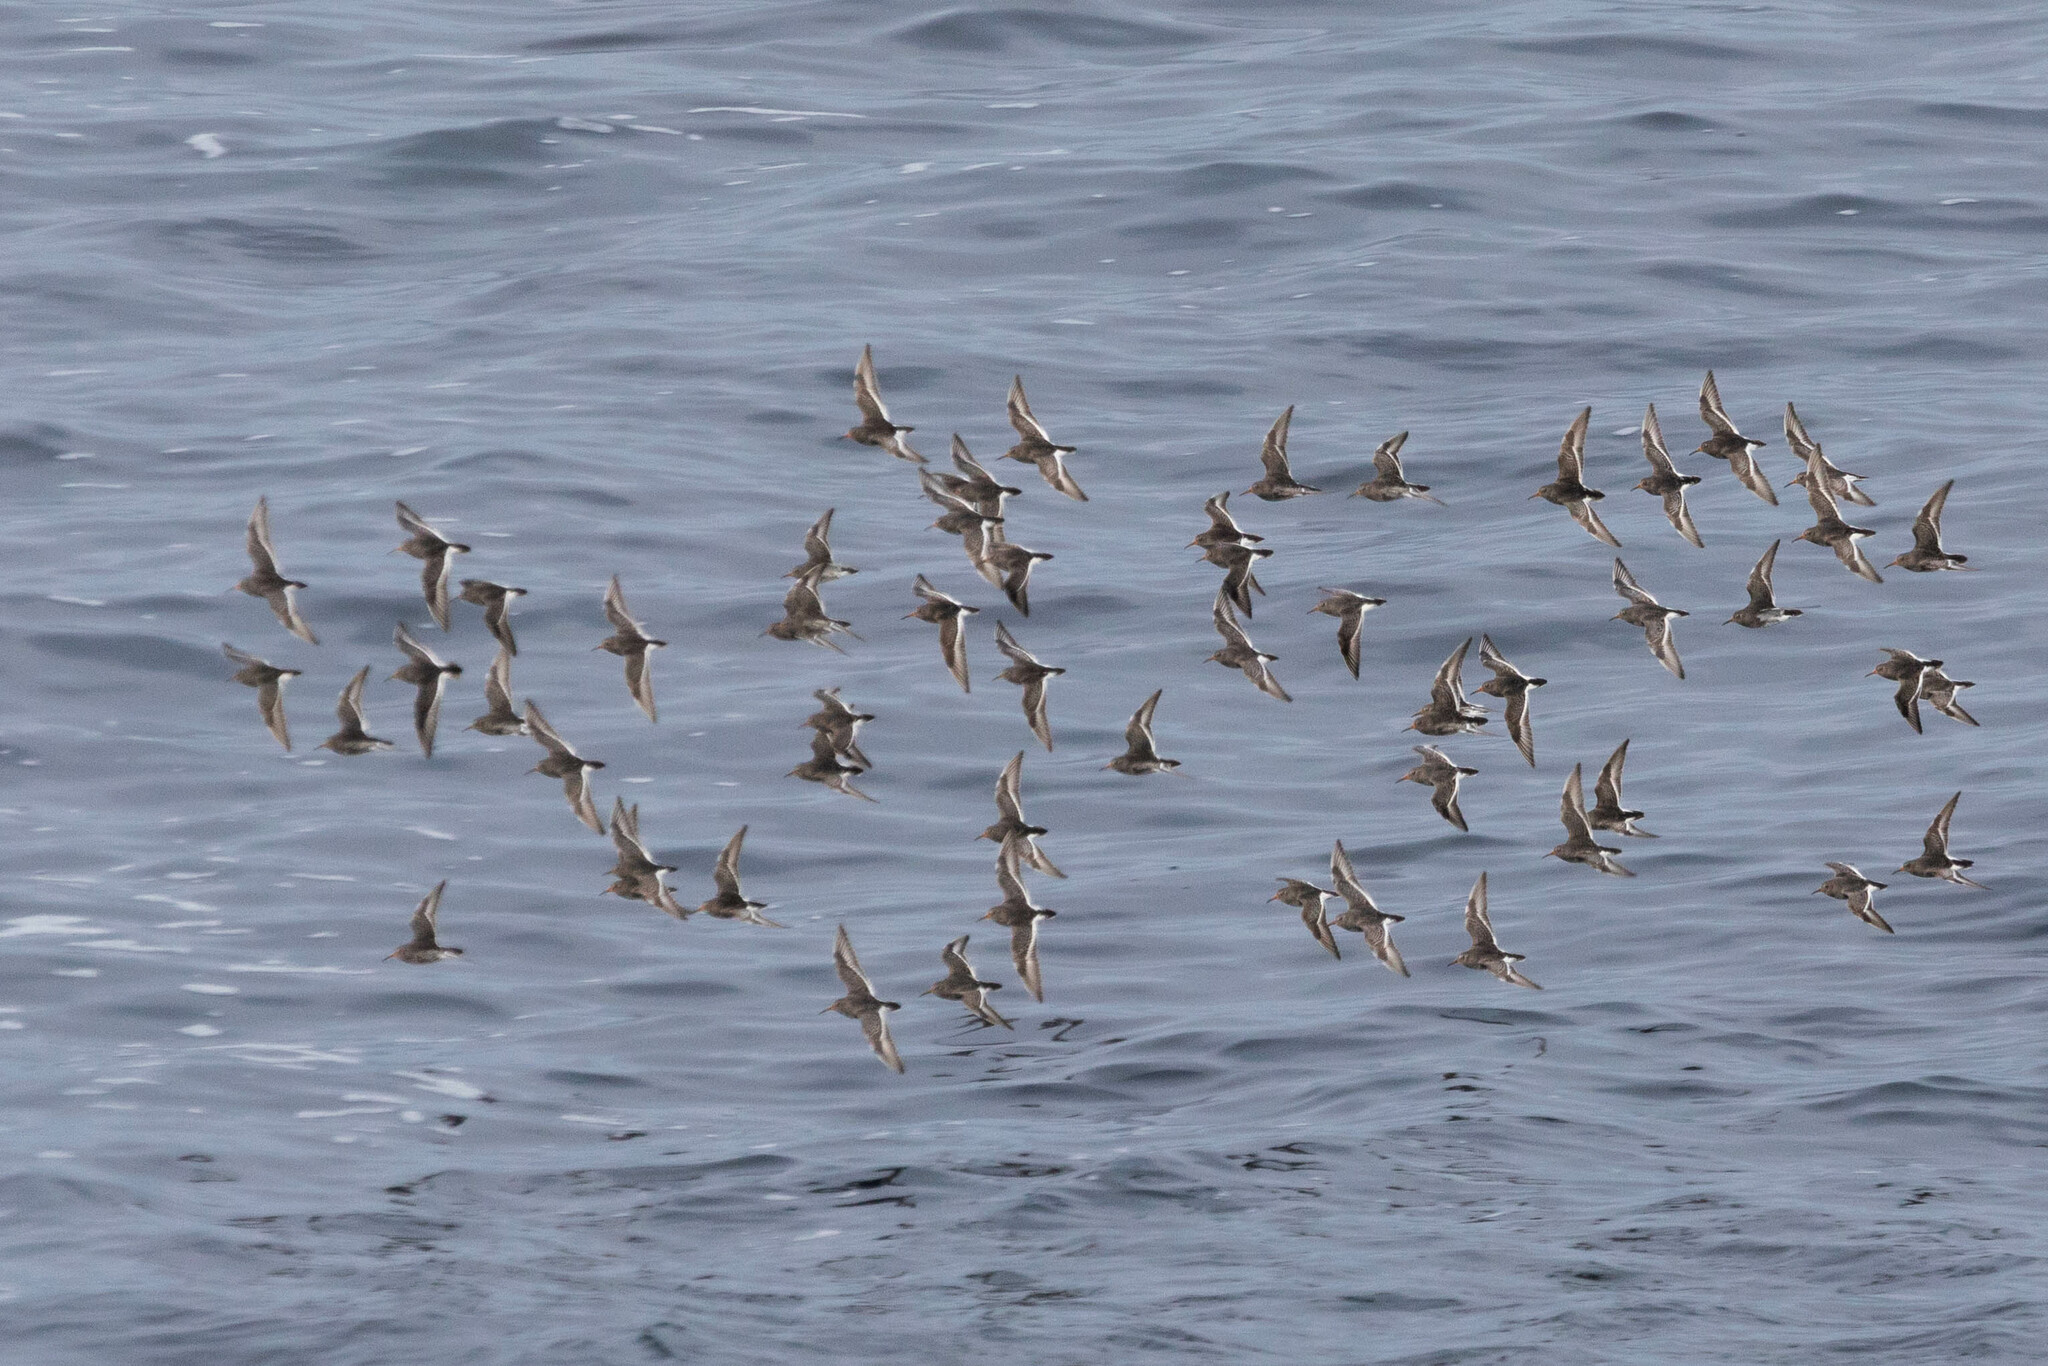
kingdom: Animalia
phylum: Chordata
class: Aves
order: Charadriiformes
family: Scolopacidae
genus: Calidris
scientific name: Calidris maritima
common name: Purple sandpiper
